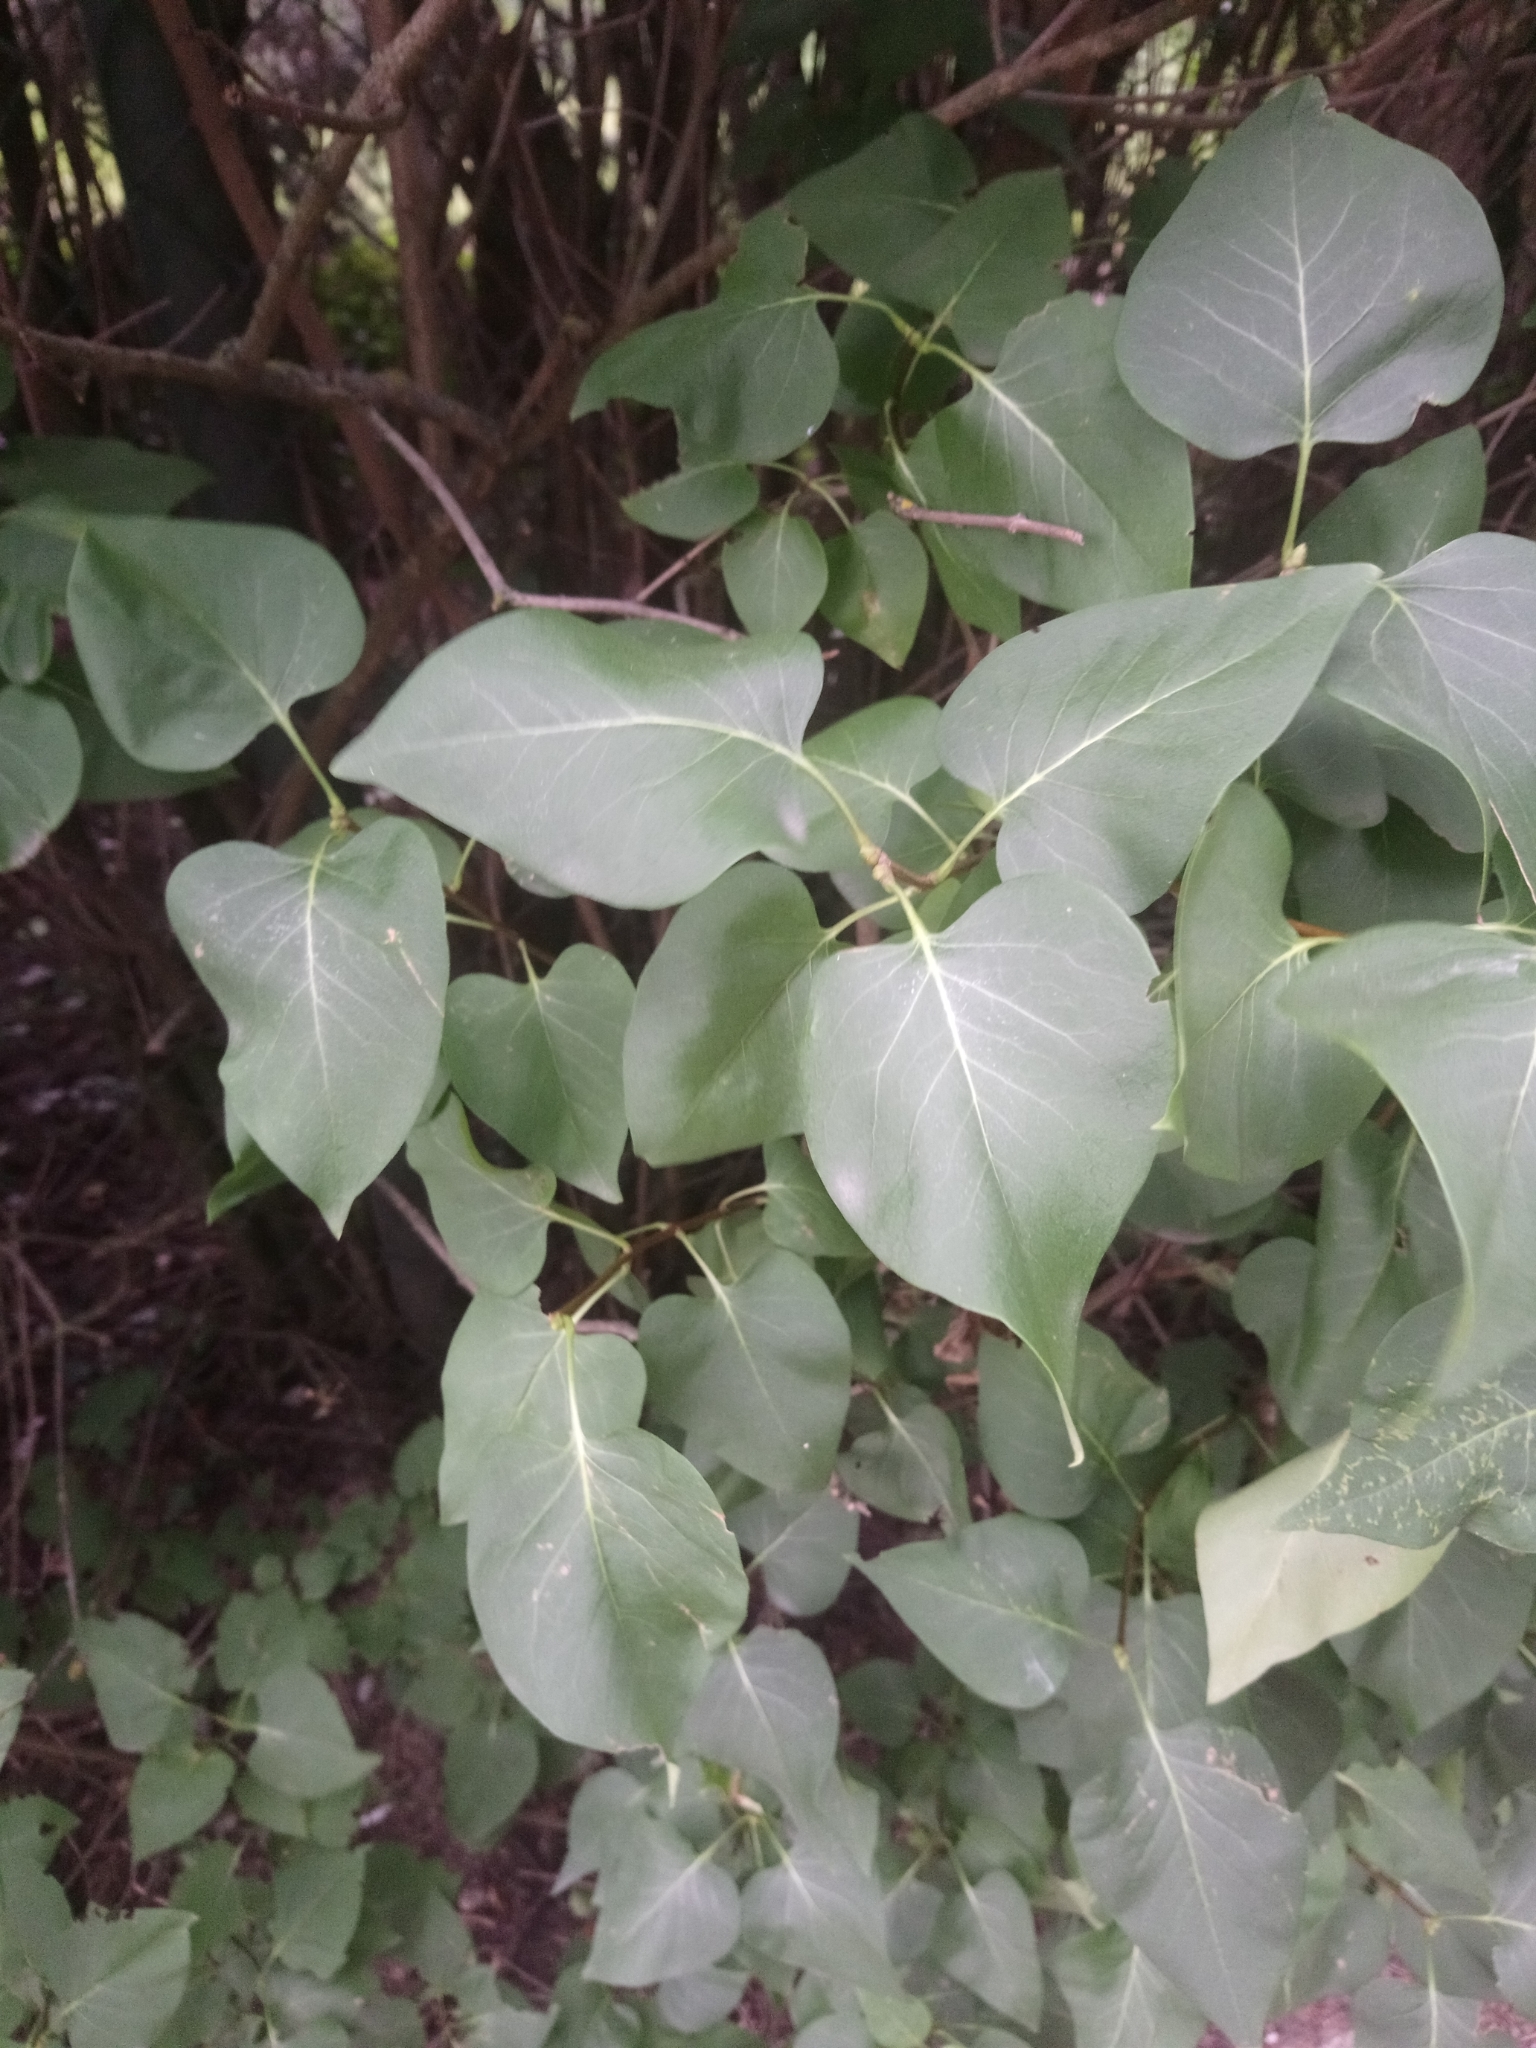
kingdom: Plantae
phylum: Tracheophyta
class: Magnoliopsida
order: Lamiales
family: Oleaceae
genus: Syringa
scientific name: Syringa vulgaris
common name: Common lilac
